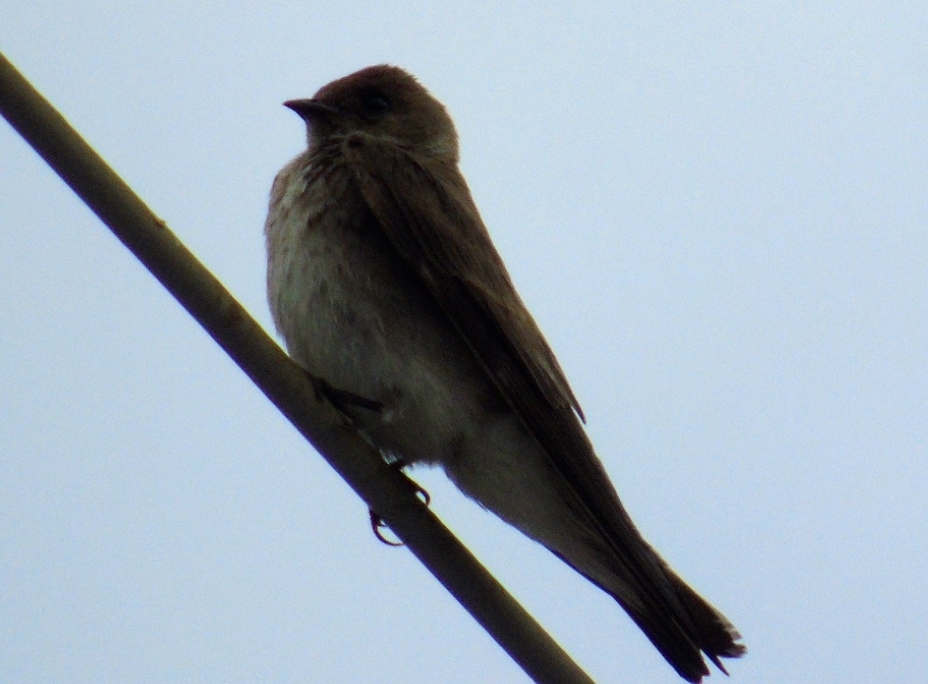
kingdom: Animalia
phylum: Chordata
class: Aves
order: Passeriformes
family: Hirundinidae
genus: Stelgidopteryx
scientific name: Stelgidopteryx serripennis
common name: Northern rough-winged swallow
